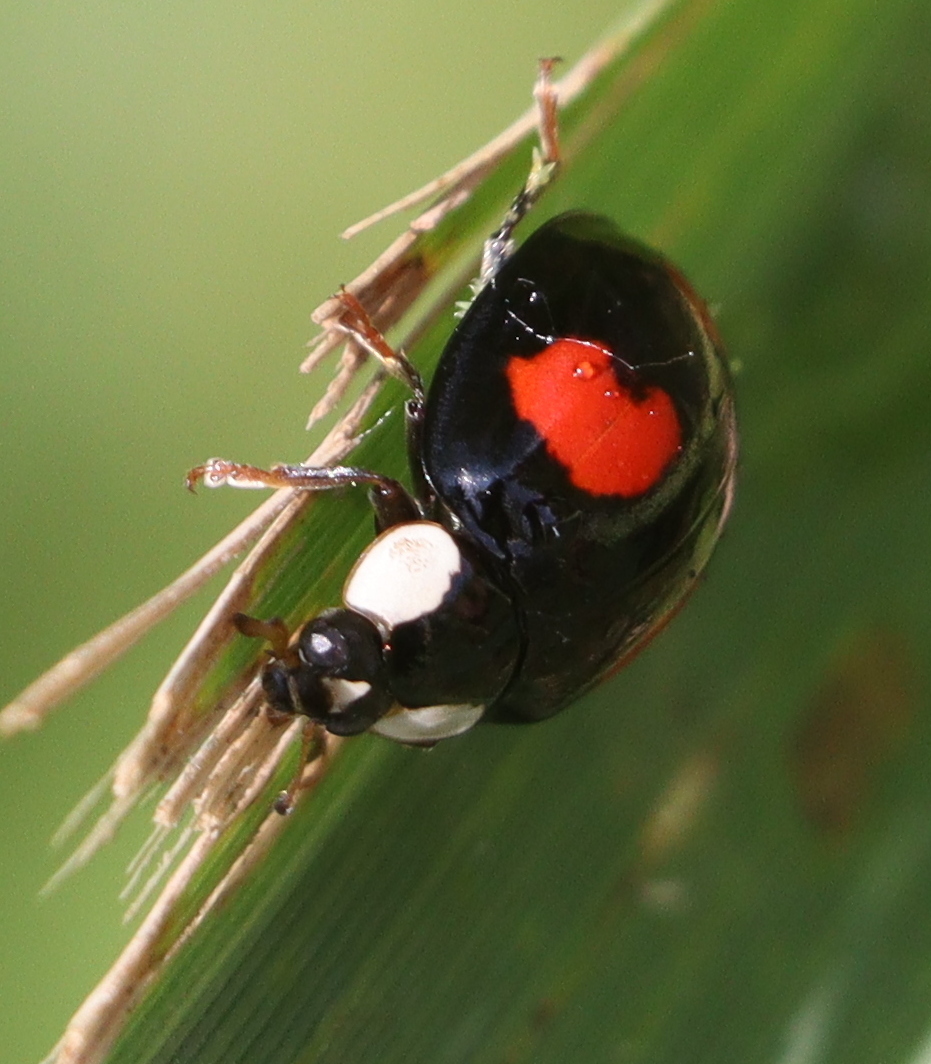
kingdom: Animalia
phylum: Arthropoda
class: Insecta
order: Coleoptera
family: Coccinellidae
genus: Harmonia
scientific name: Harmonia axyridis
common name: Harlequin ladybird
